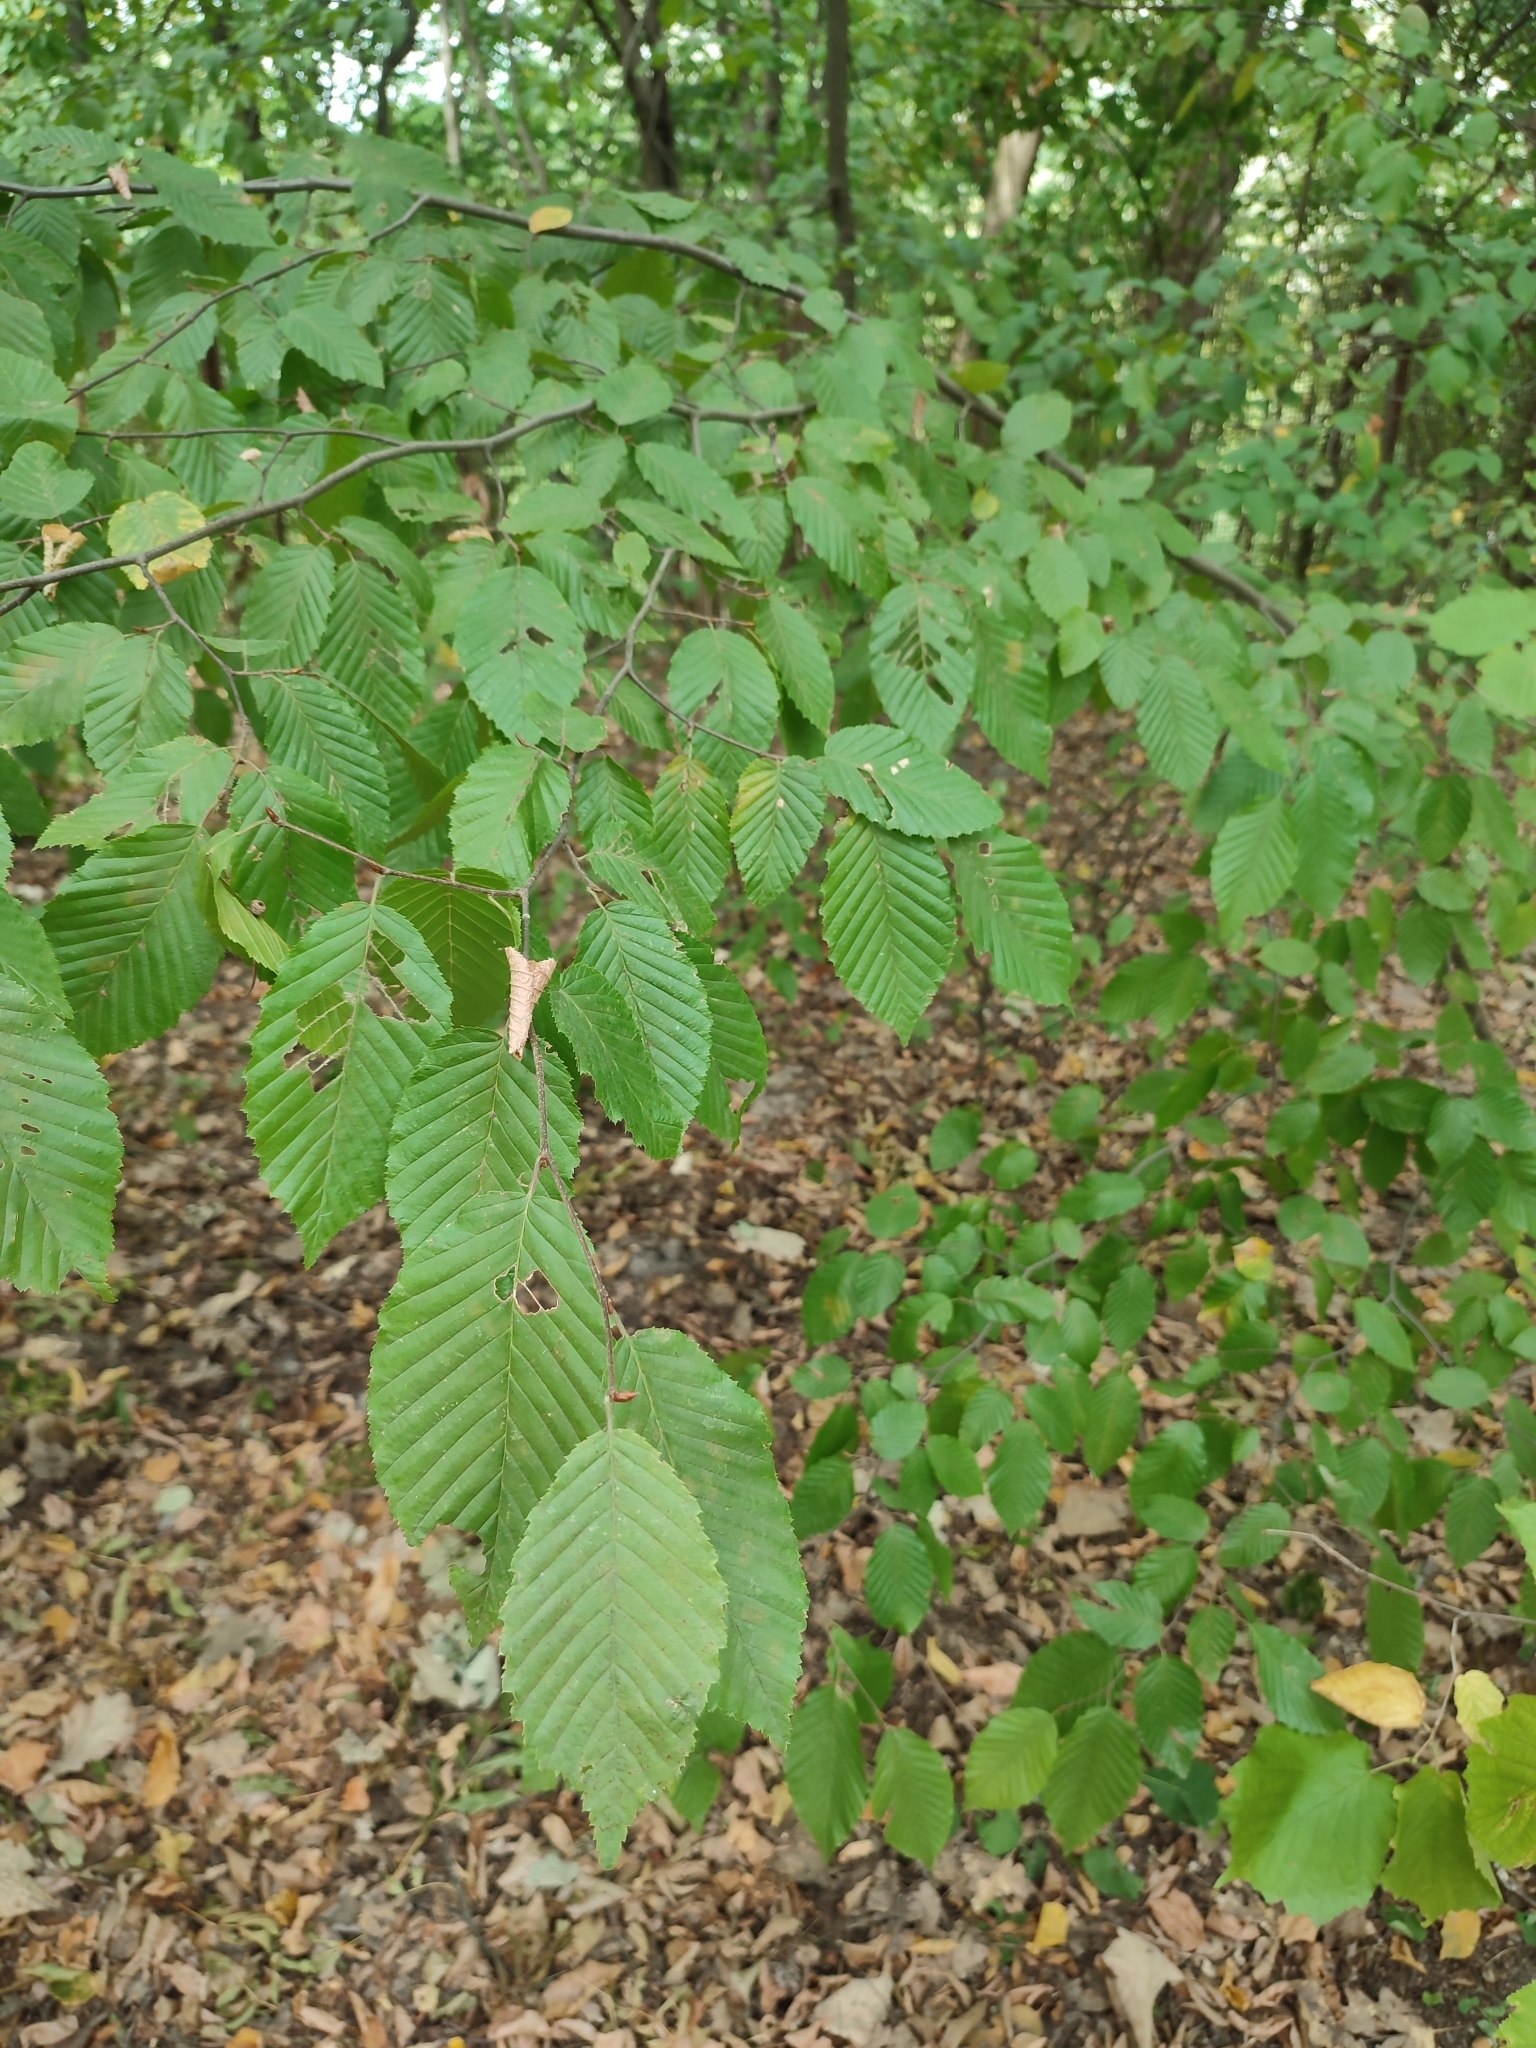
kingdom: Plantae
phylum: Tracheophyta
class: Magnoliopsida
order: Fagales
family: Betulaceae
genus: Carpinus
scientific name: Carpinus betulus
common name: Hornbeam
